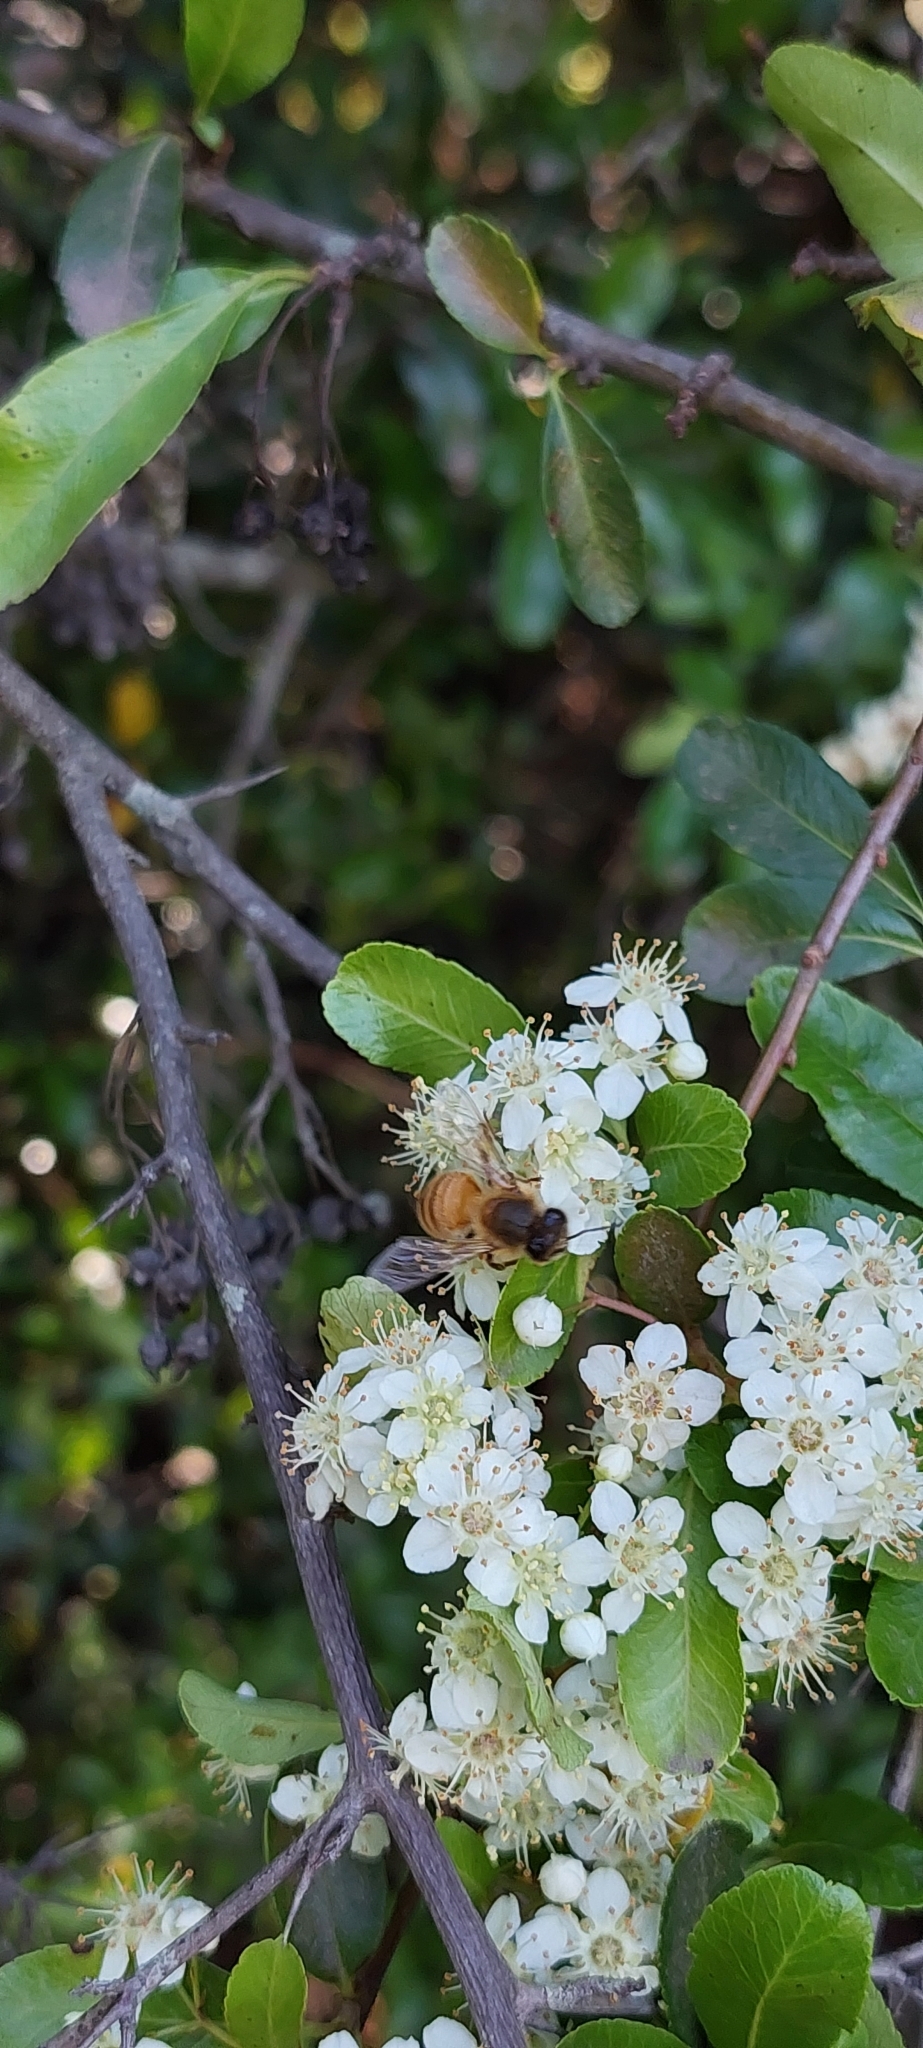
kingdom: Animalia
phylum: Arthropoda
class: Insecta
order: Hymenoptera
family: Apidae
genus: Apis
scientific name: Apis mellifera
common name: Honey bee
